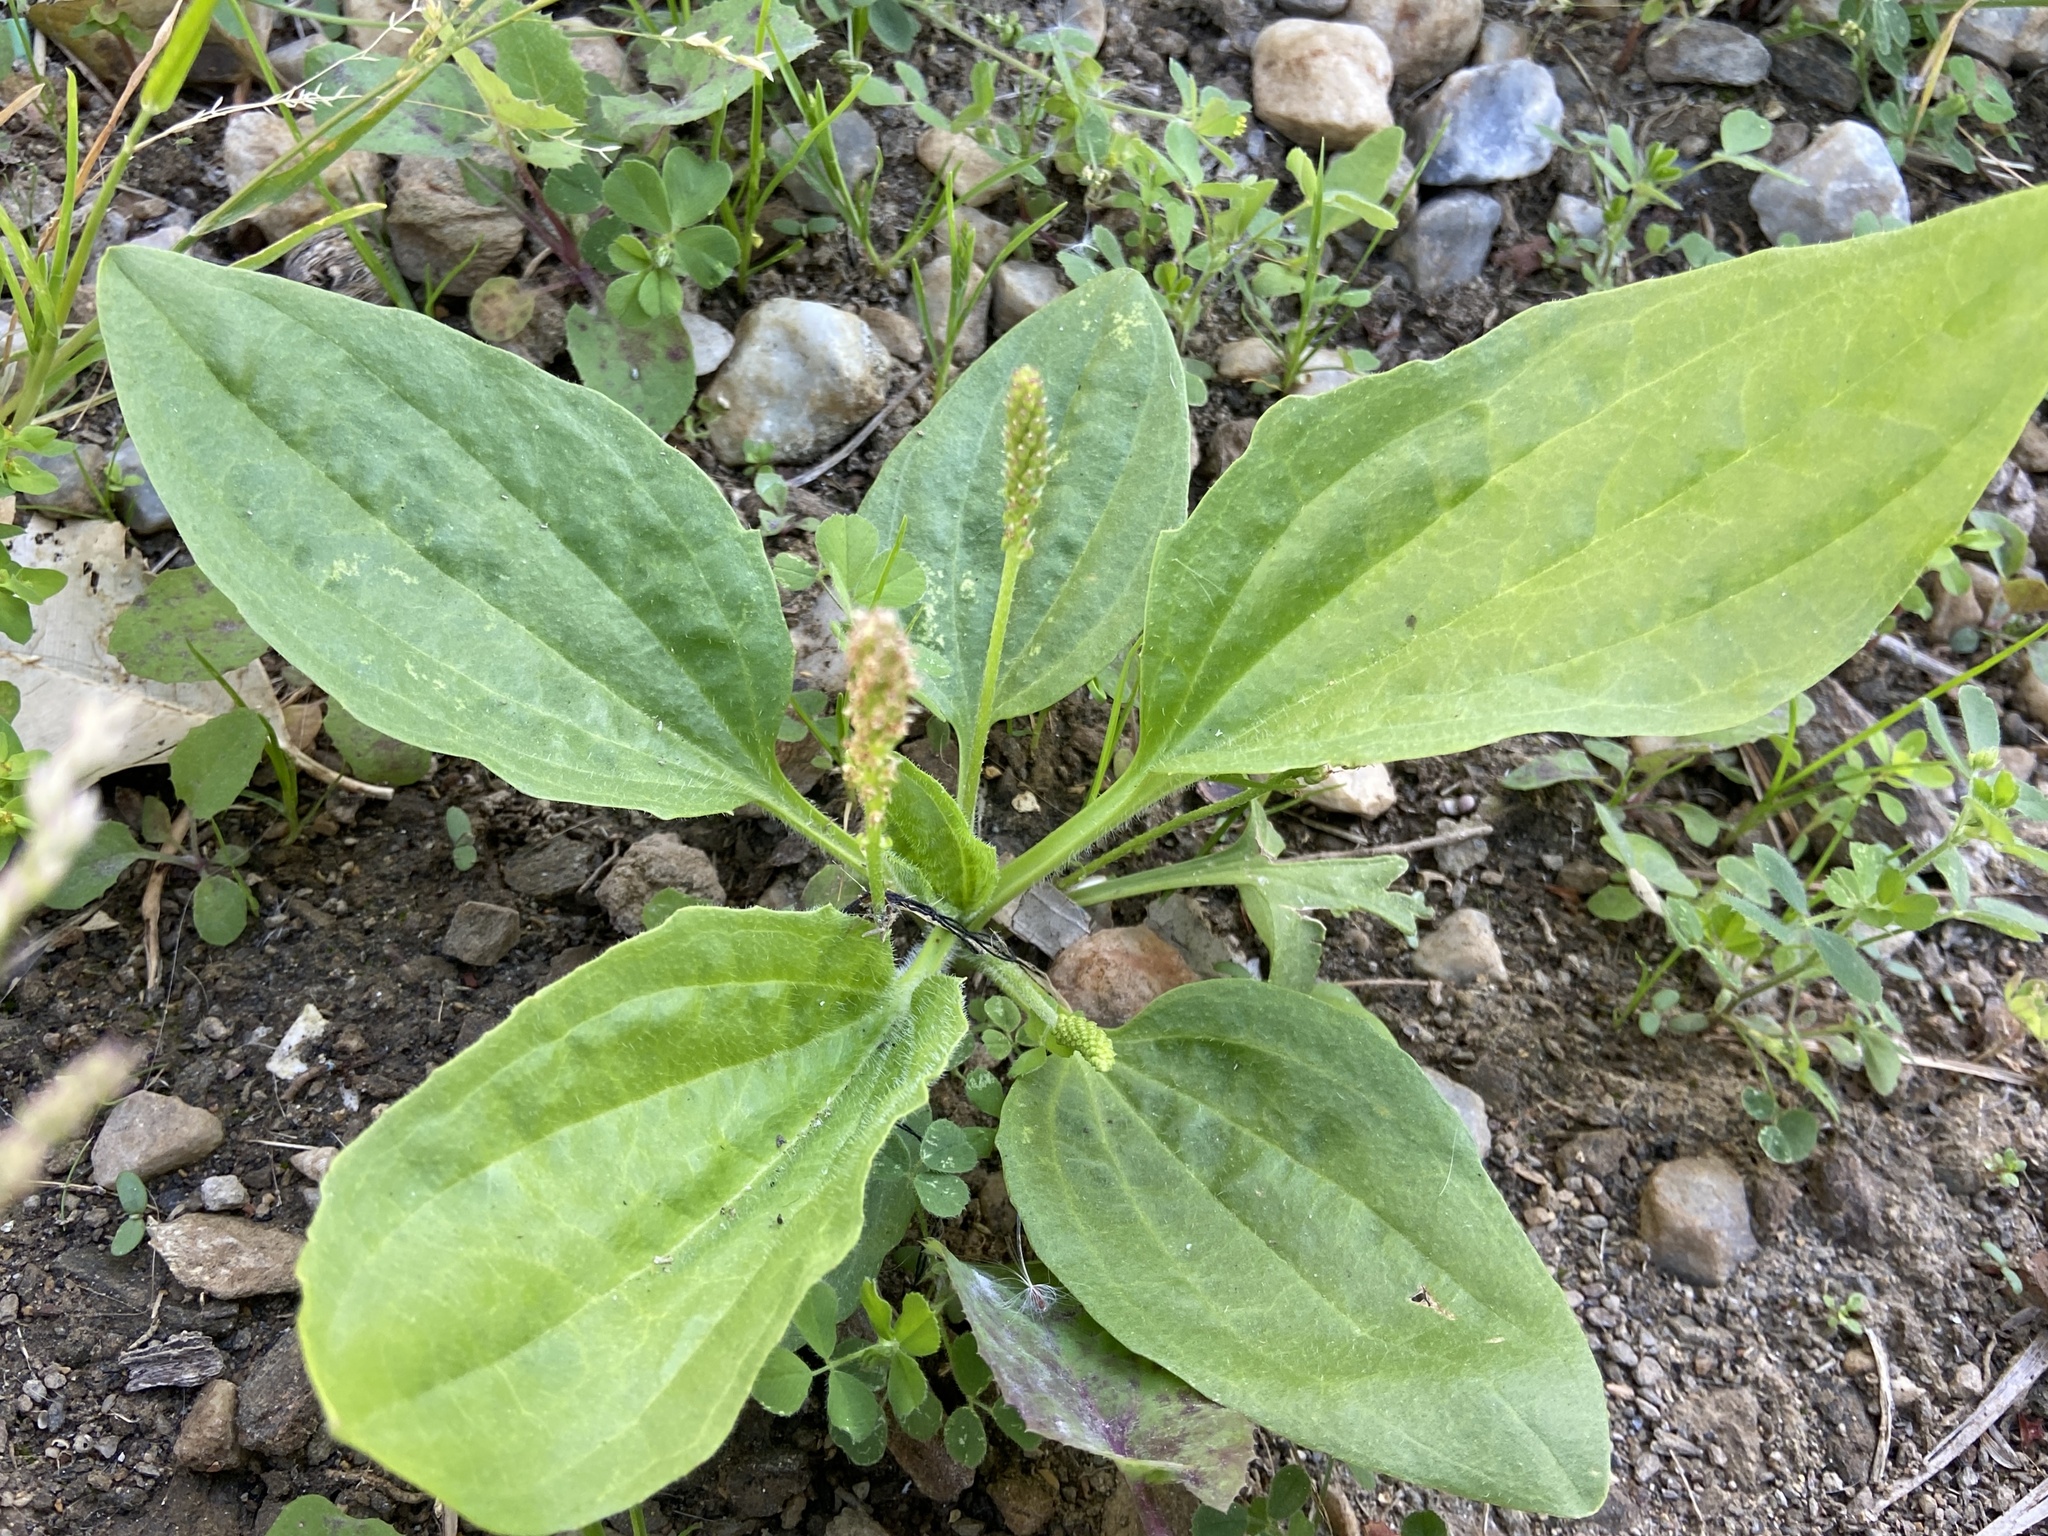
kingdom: Plantae
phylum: Tracheophyta
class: Magnoliopsida
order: Lamiales
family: Plantaginaceae
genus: Plantago
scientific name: Plantago major
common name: Common plantain
